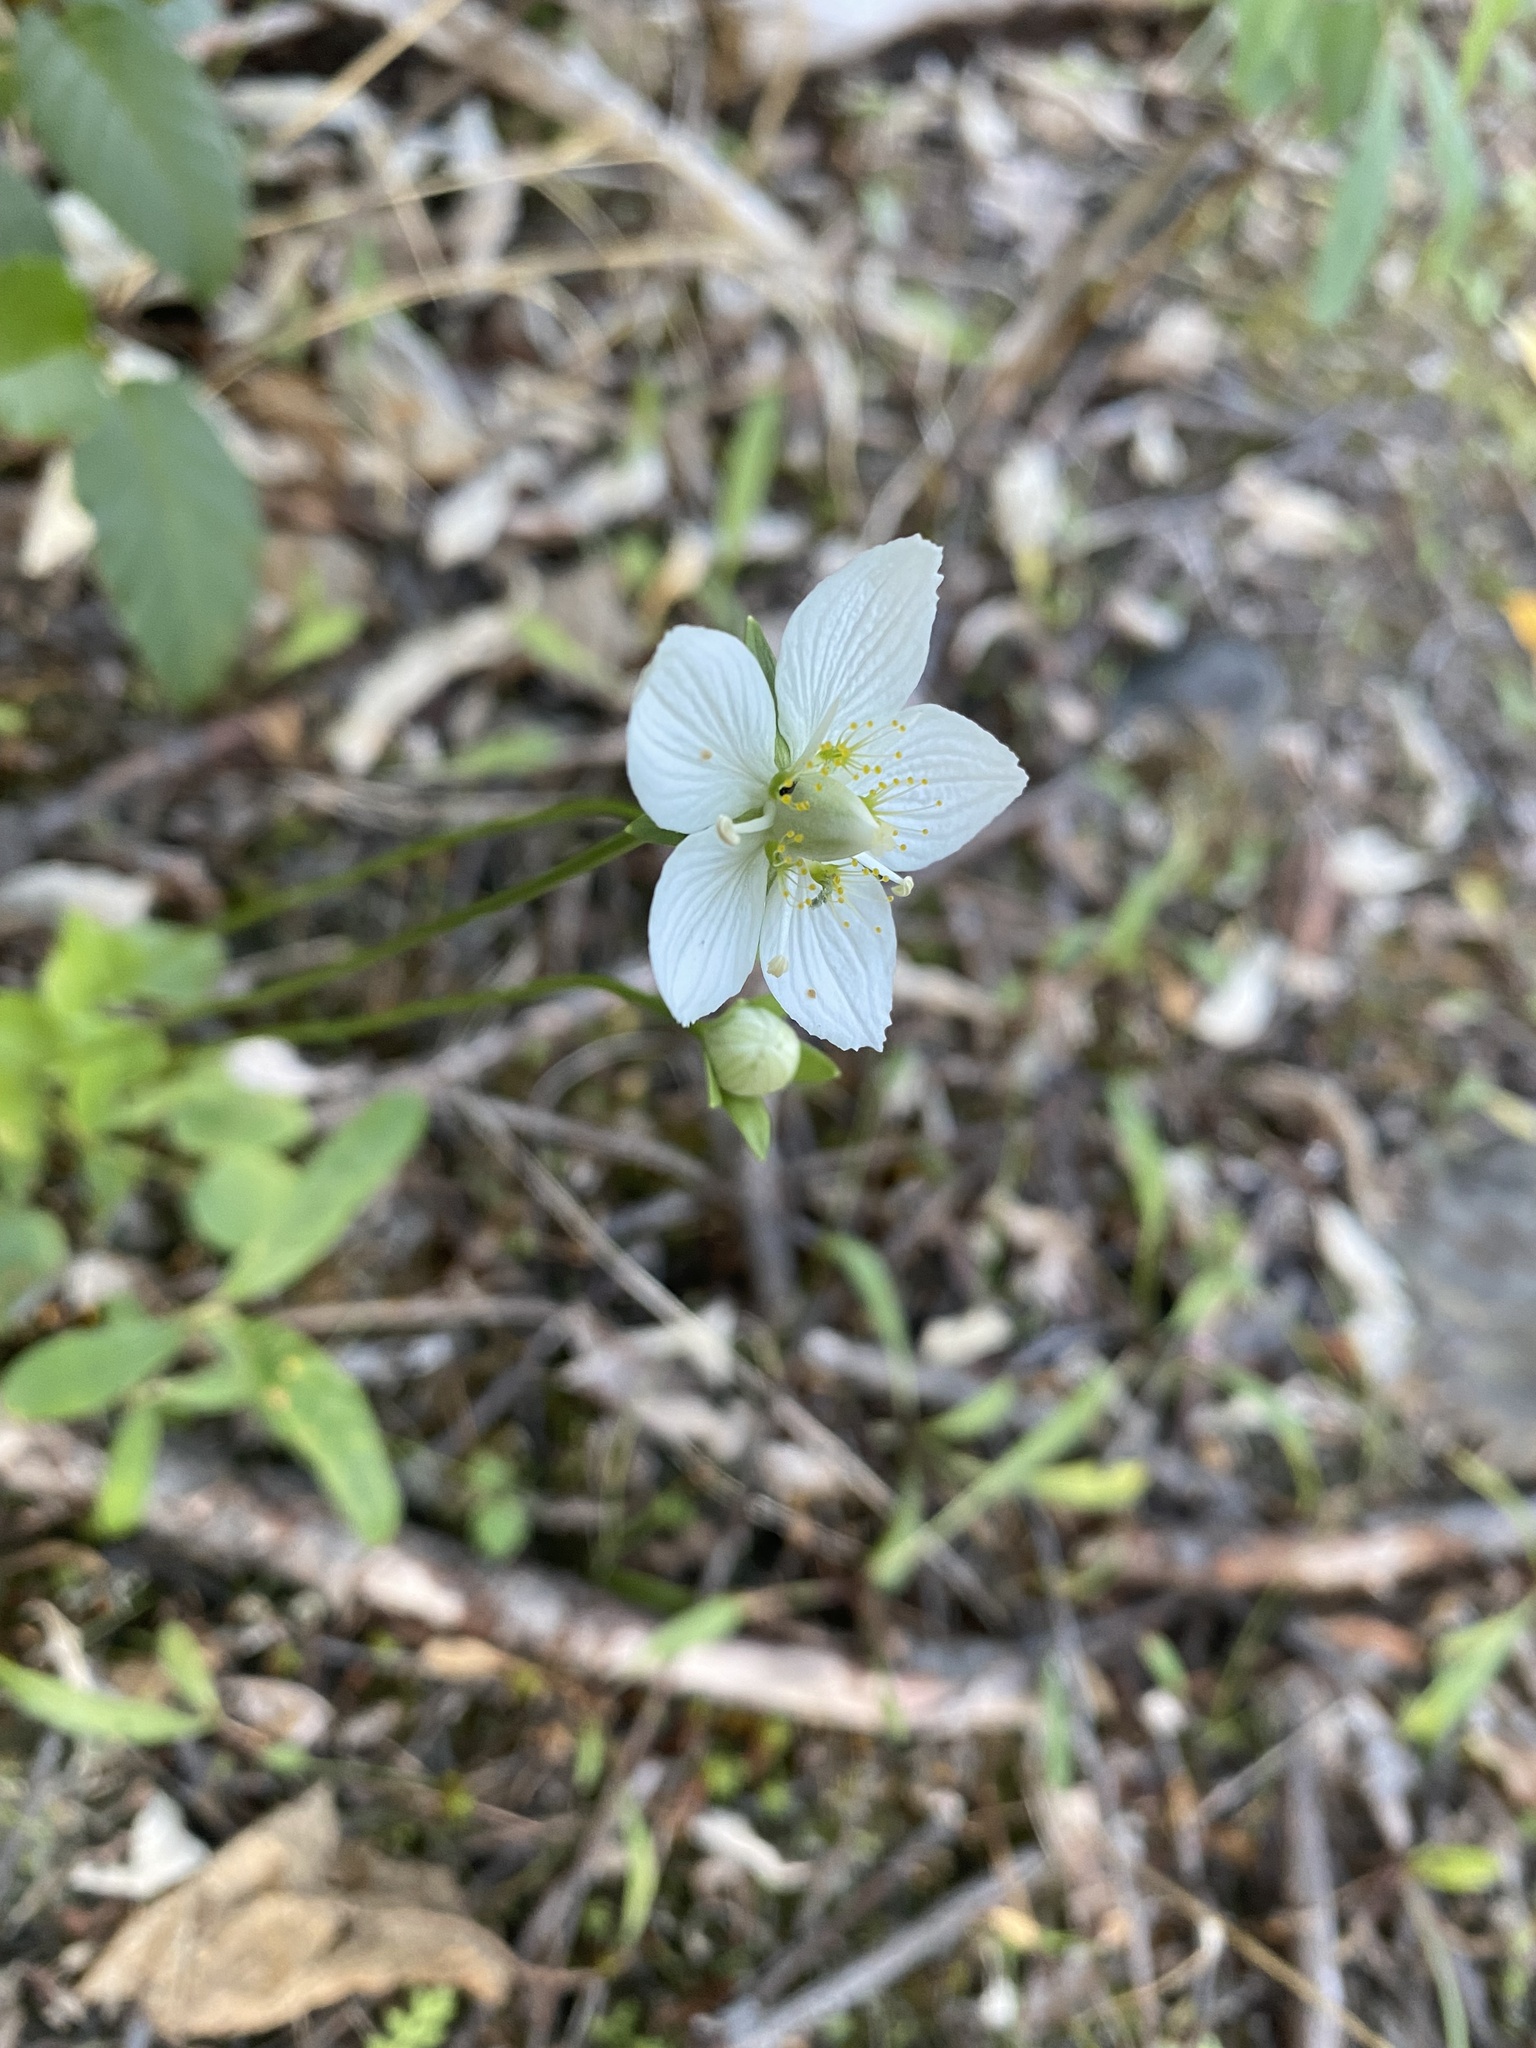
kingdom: Plantae
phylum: Tracheophyta
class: Magnoliopsida
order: Celastrales
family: Parnassiaceae
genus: Parnassia
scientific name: Parnassia palustris
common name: Grass-of-parnassus
